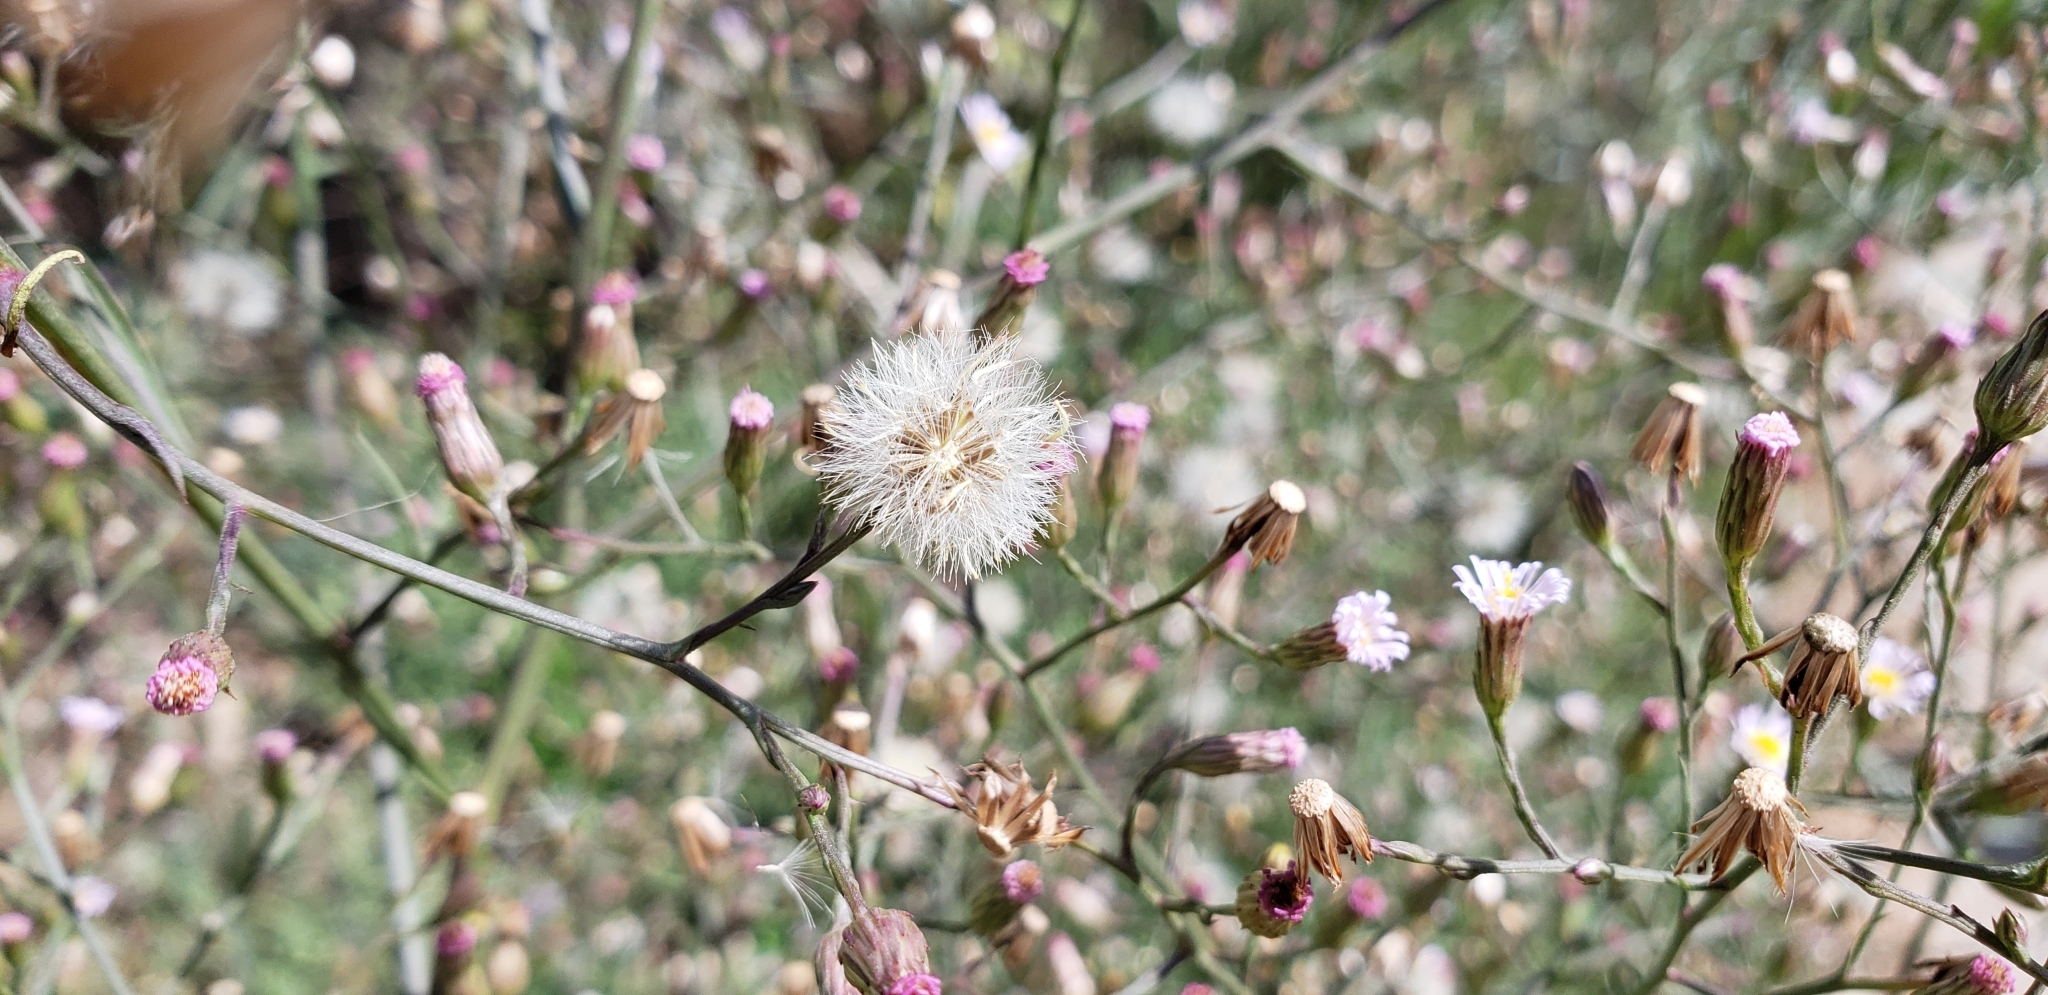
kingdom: Plantae
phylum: Tracheophyta
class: Magnoliopsida
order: Asterales
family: Asteraceae
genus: Symphyotrichum
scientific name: Symphyotrichum subulatum
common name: Annual saltmarsh aster
